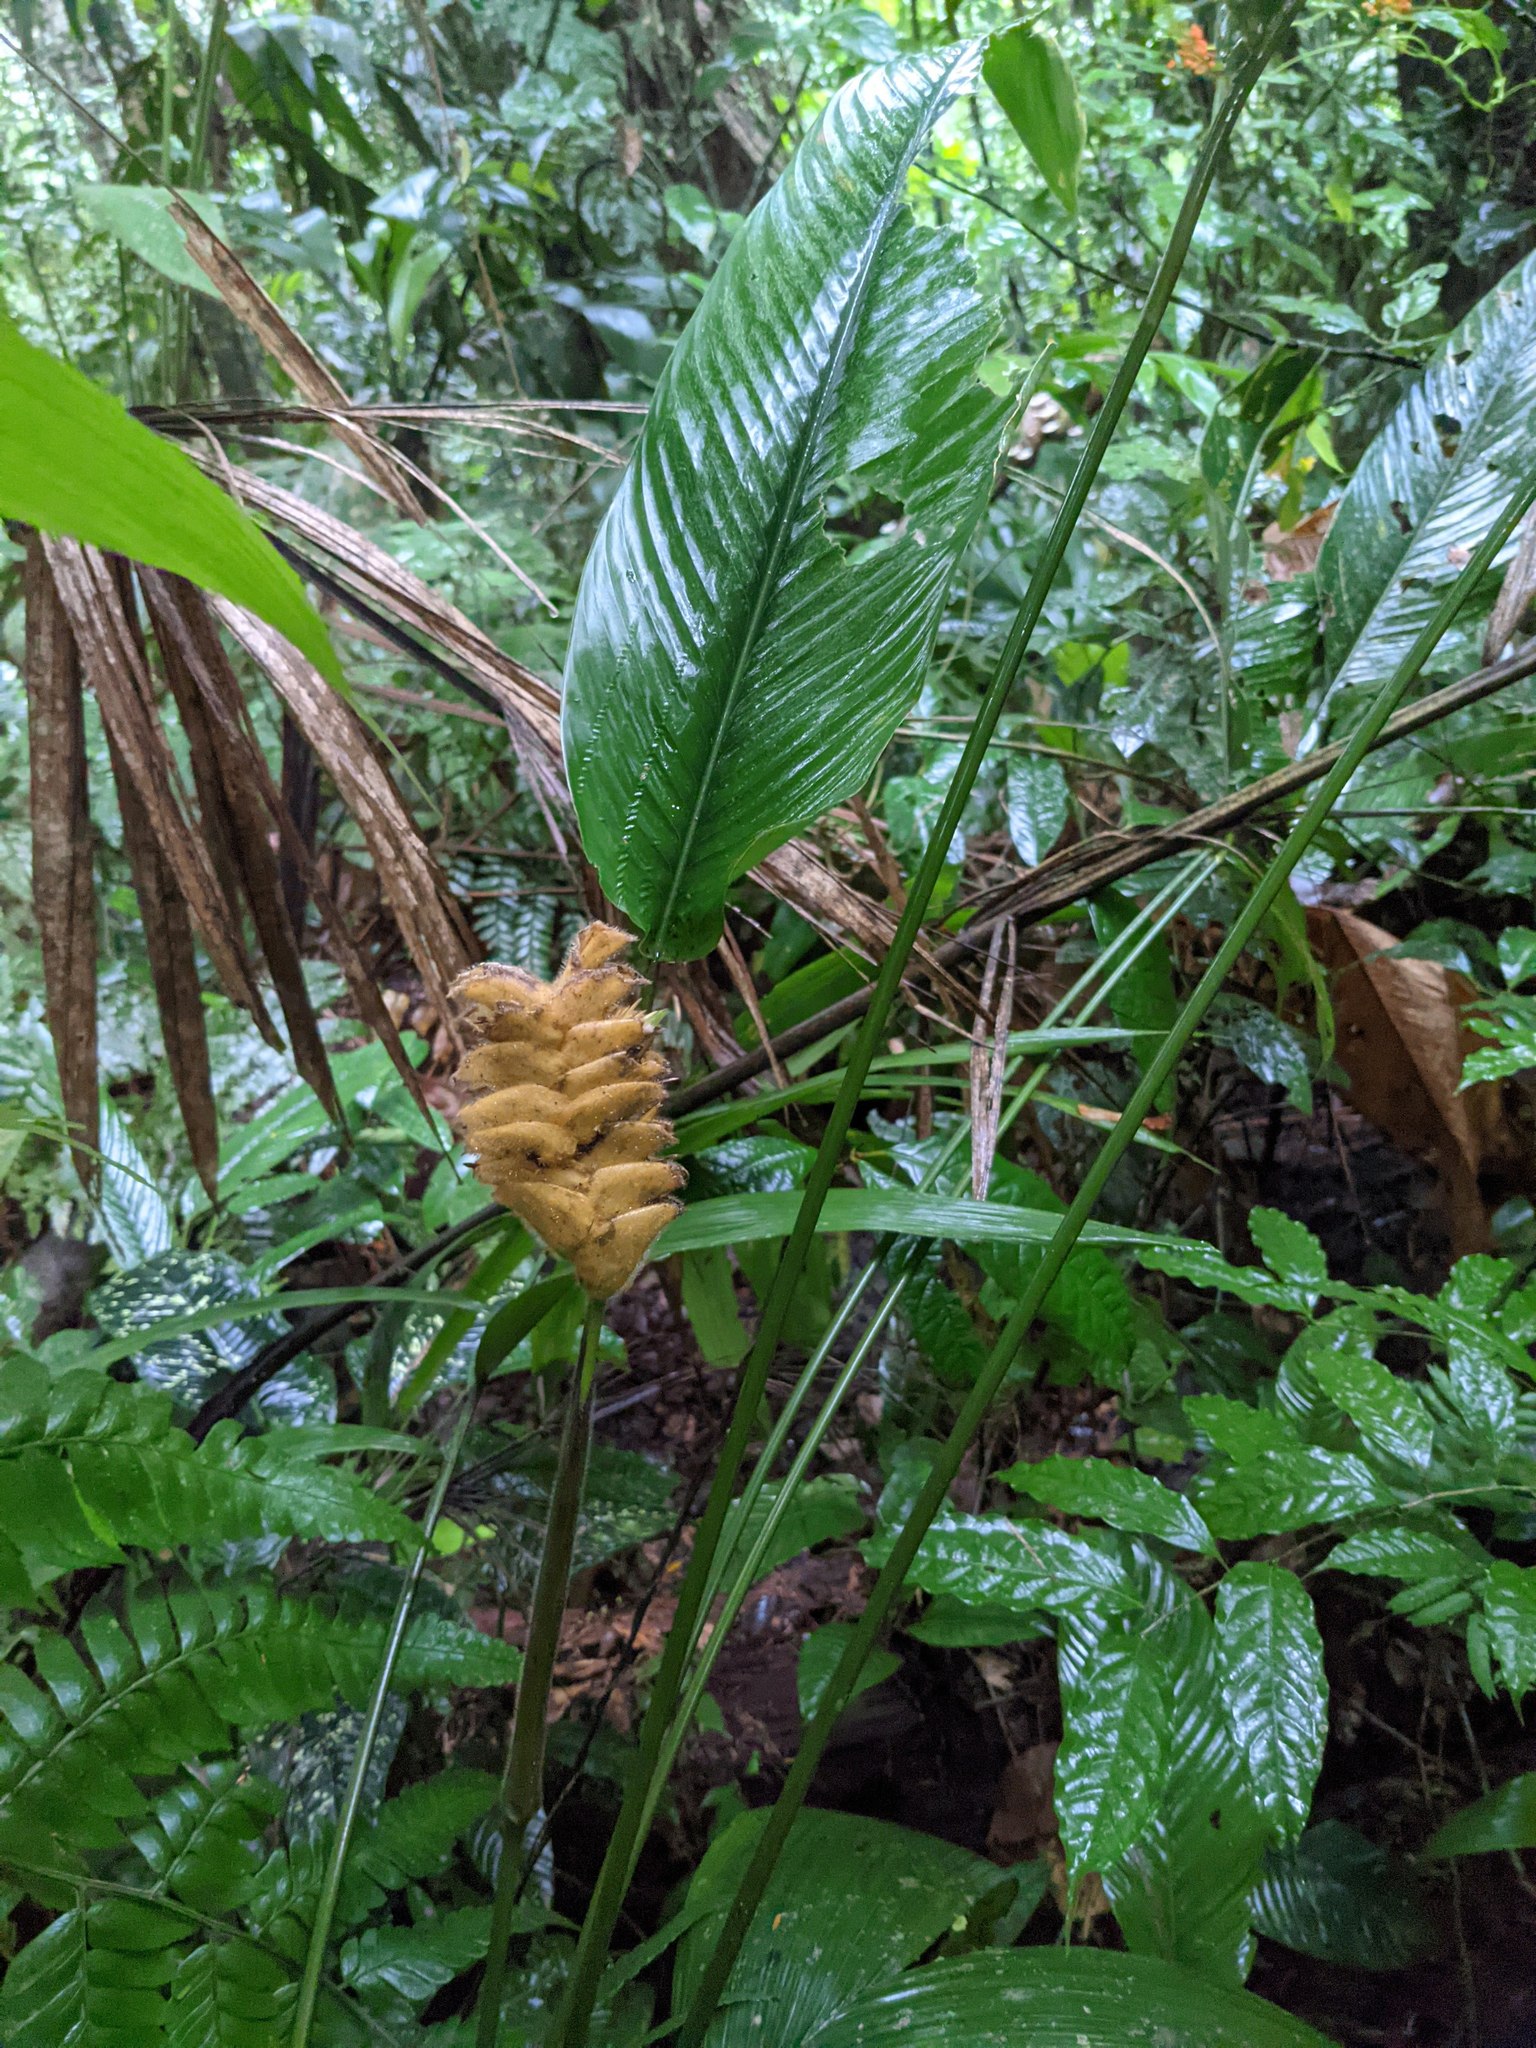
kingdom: Plantae
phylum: Tracheophyta
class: Liliopsida
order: Zingiberales
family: Marantaceae
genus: Calathea
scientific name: Calathea crotalifera
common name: Rattlesnake plant
